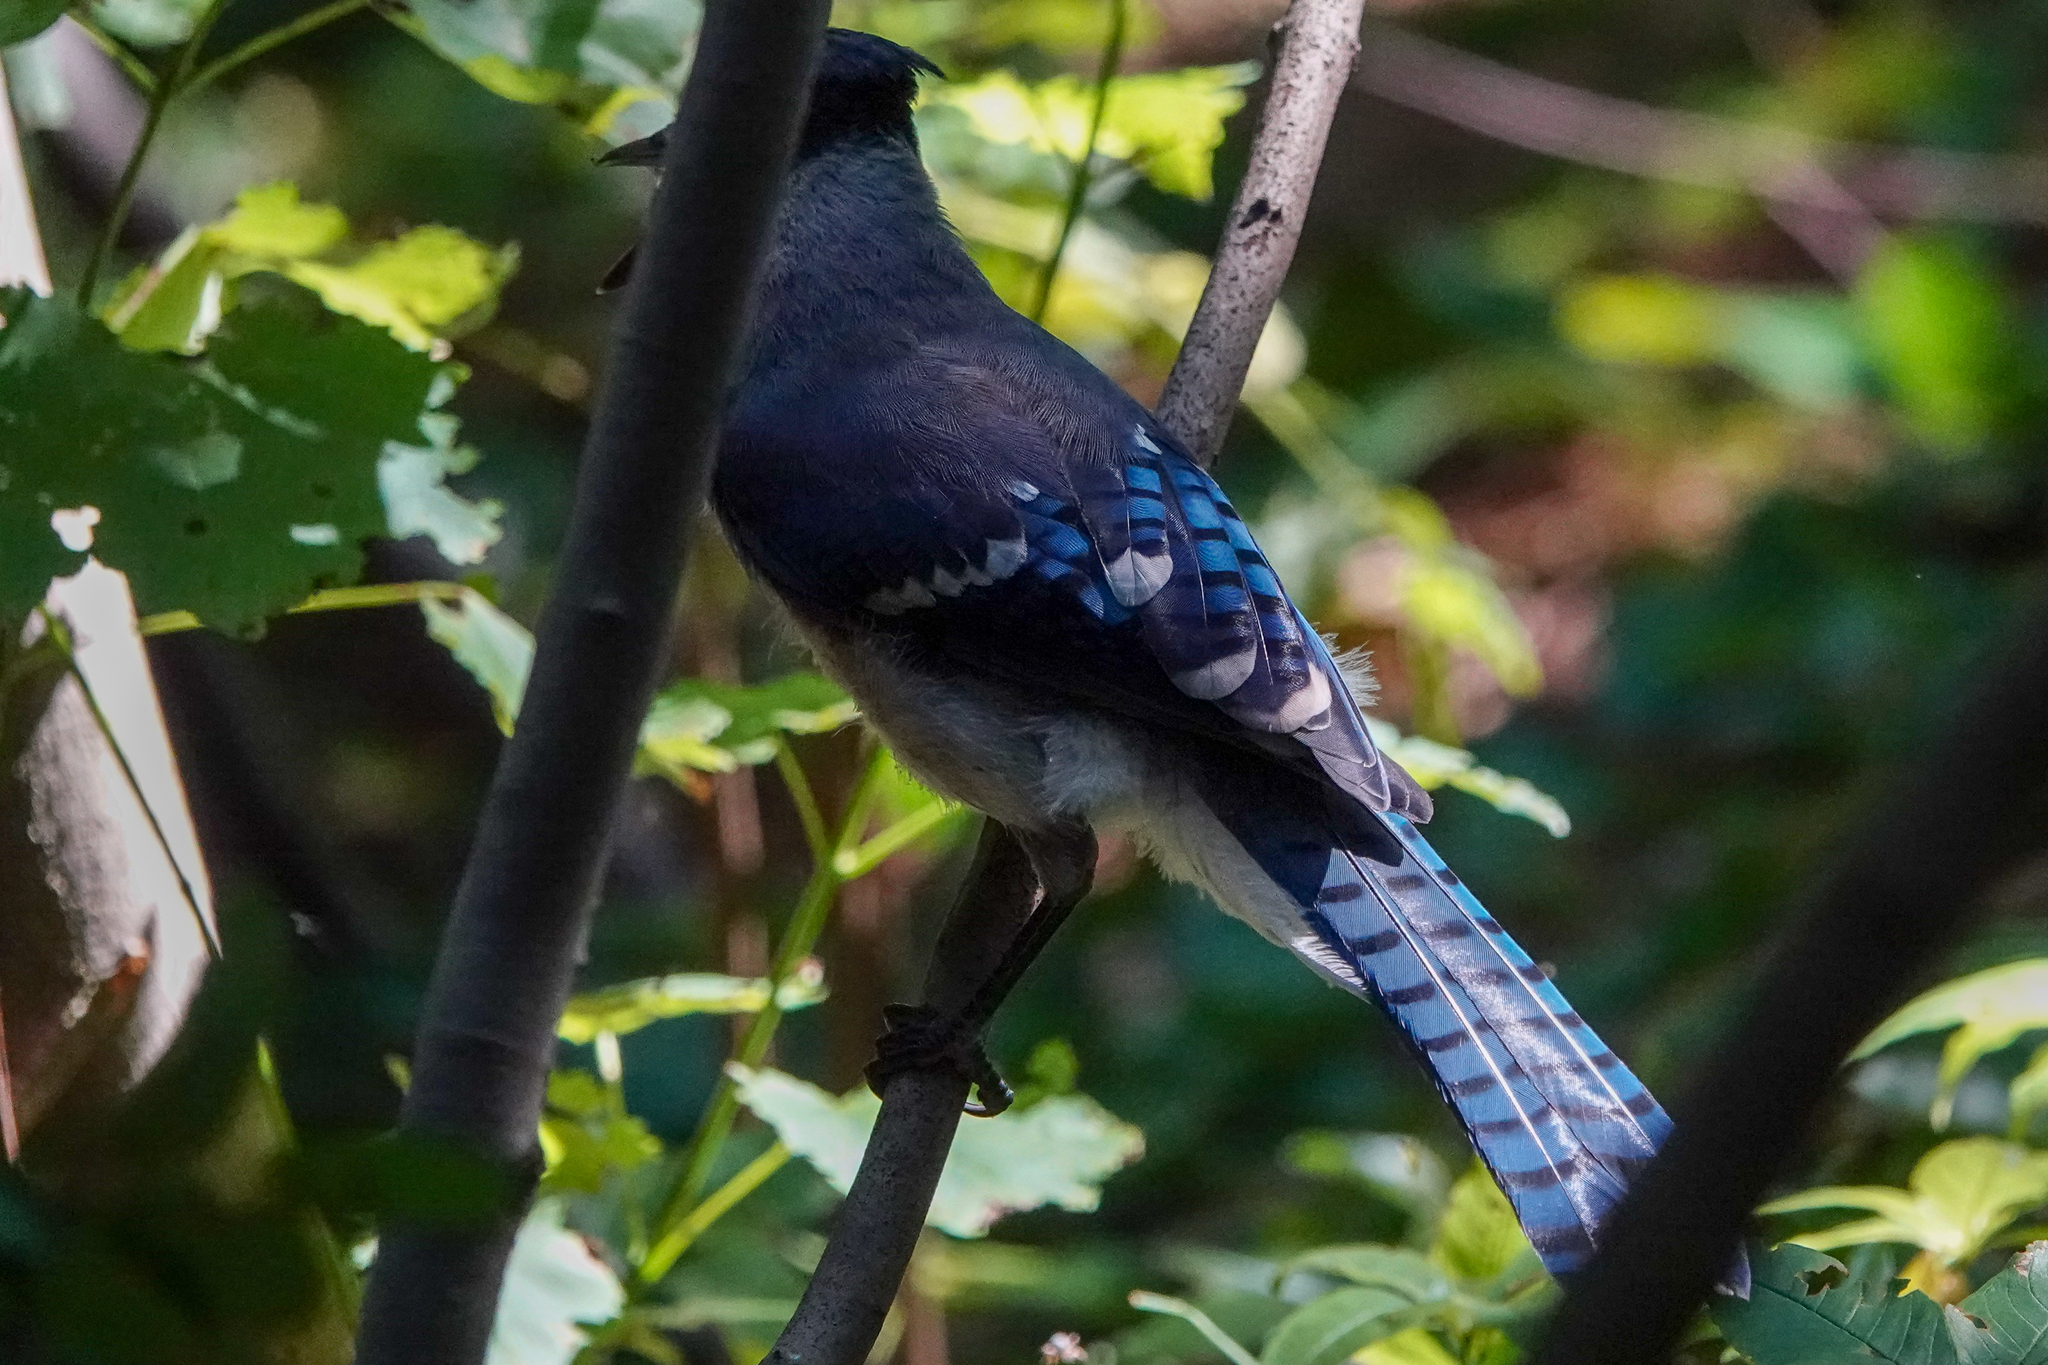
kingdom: Animalia
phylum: Chordata
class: Aves
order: Passeriformes
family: Corvidae
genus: Cyanocitta
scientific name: Cyanocitta cristata
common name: Blue jay
